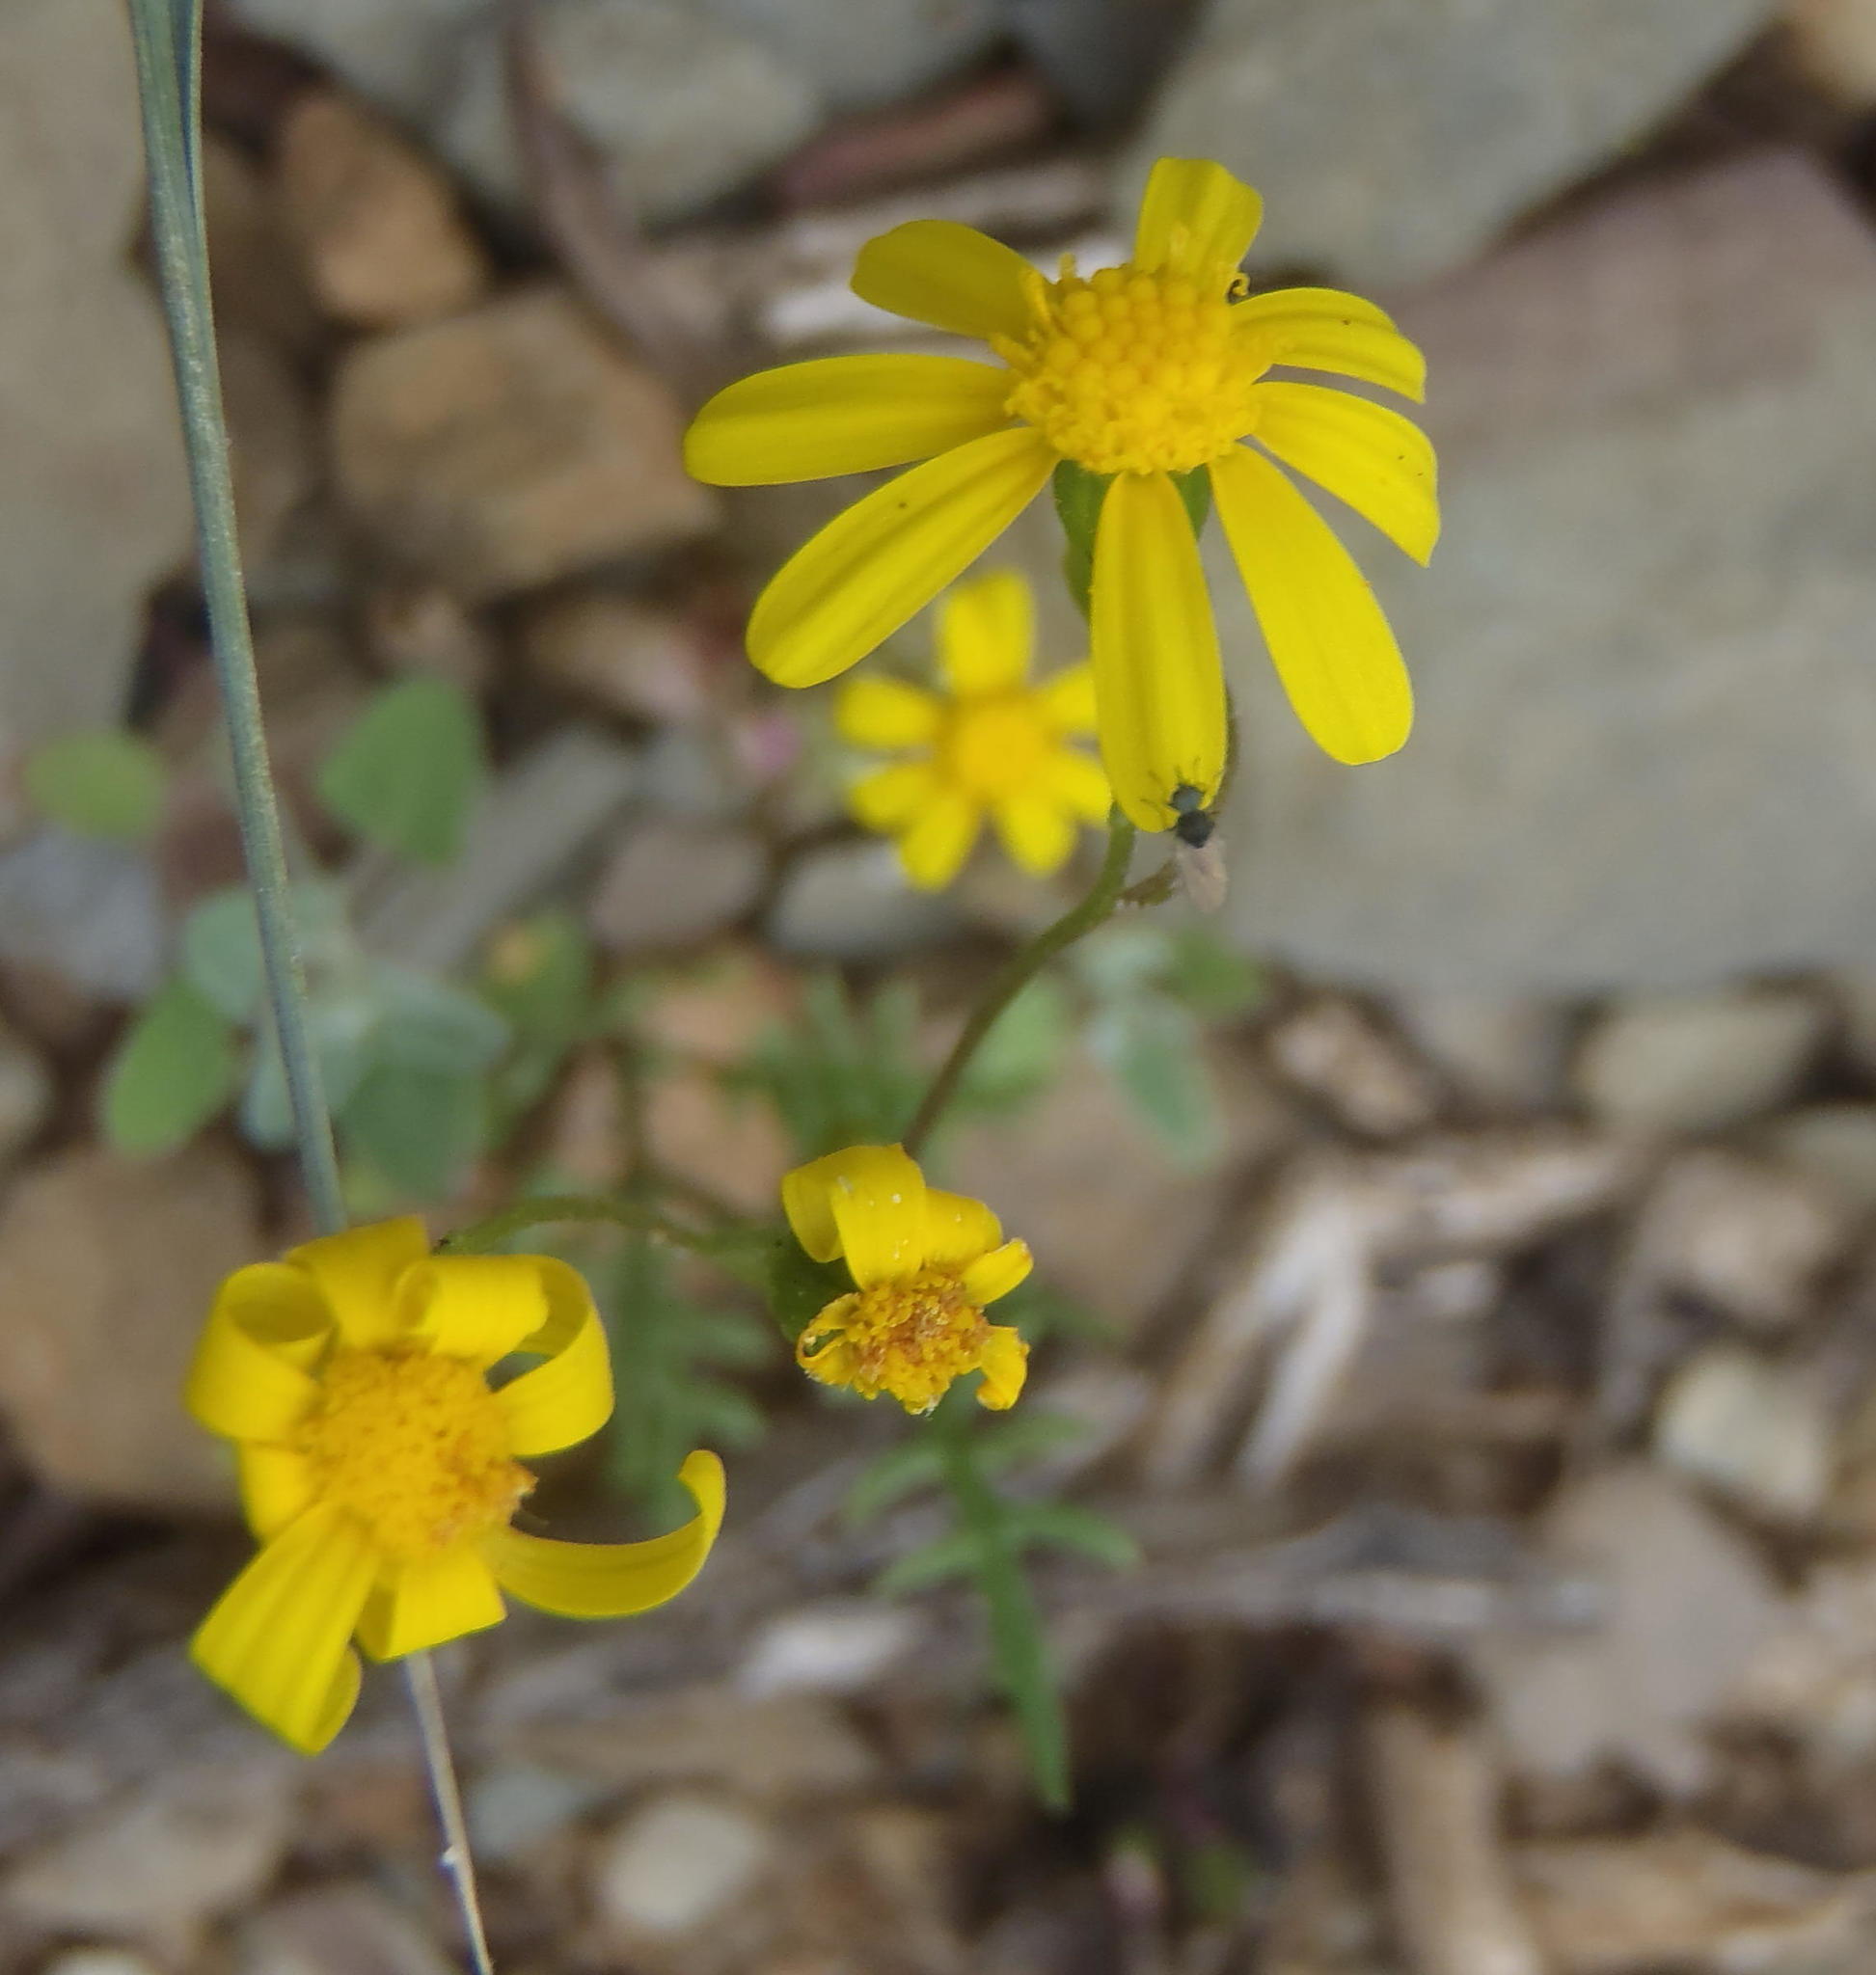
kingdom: Plantae
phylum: Tracheophyta
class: Magnoliopsida
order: Asterales
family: Asteraceae
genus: Senecio
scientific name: Senecio lessingii
